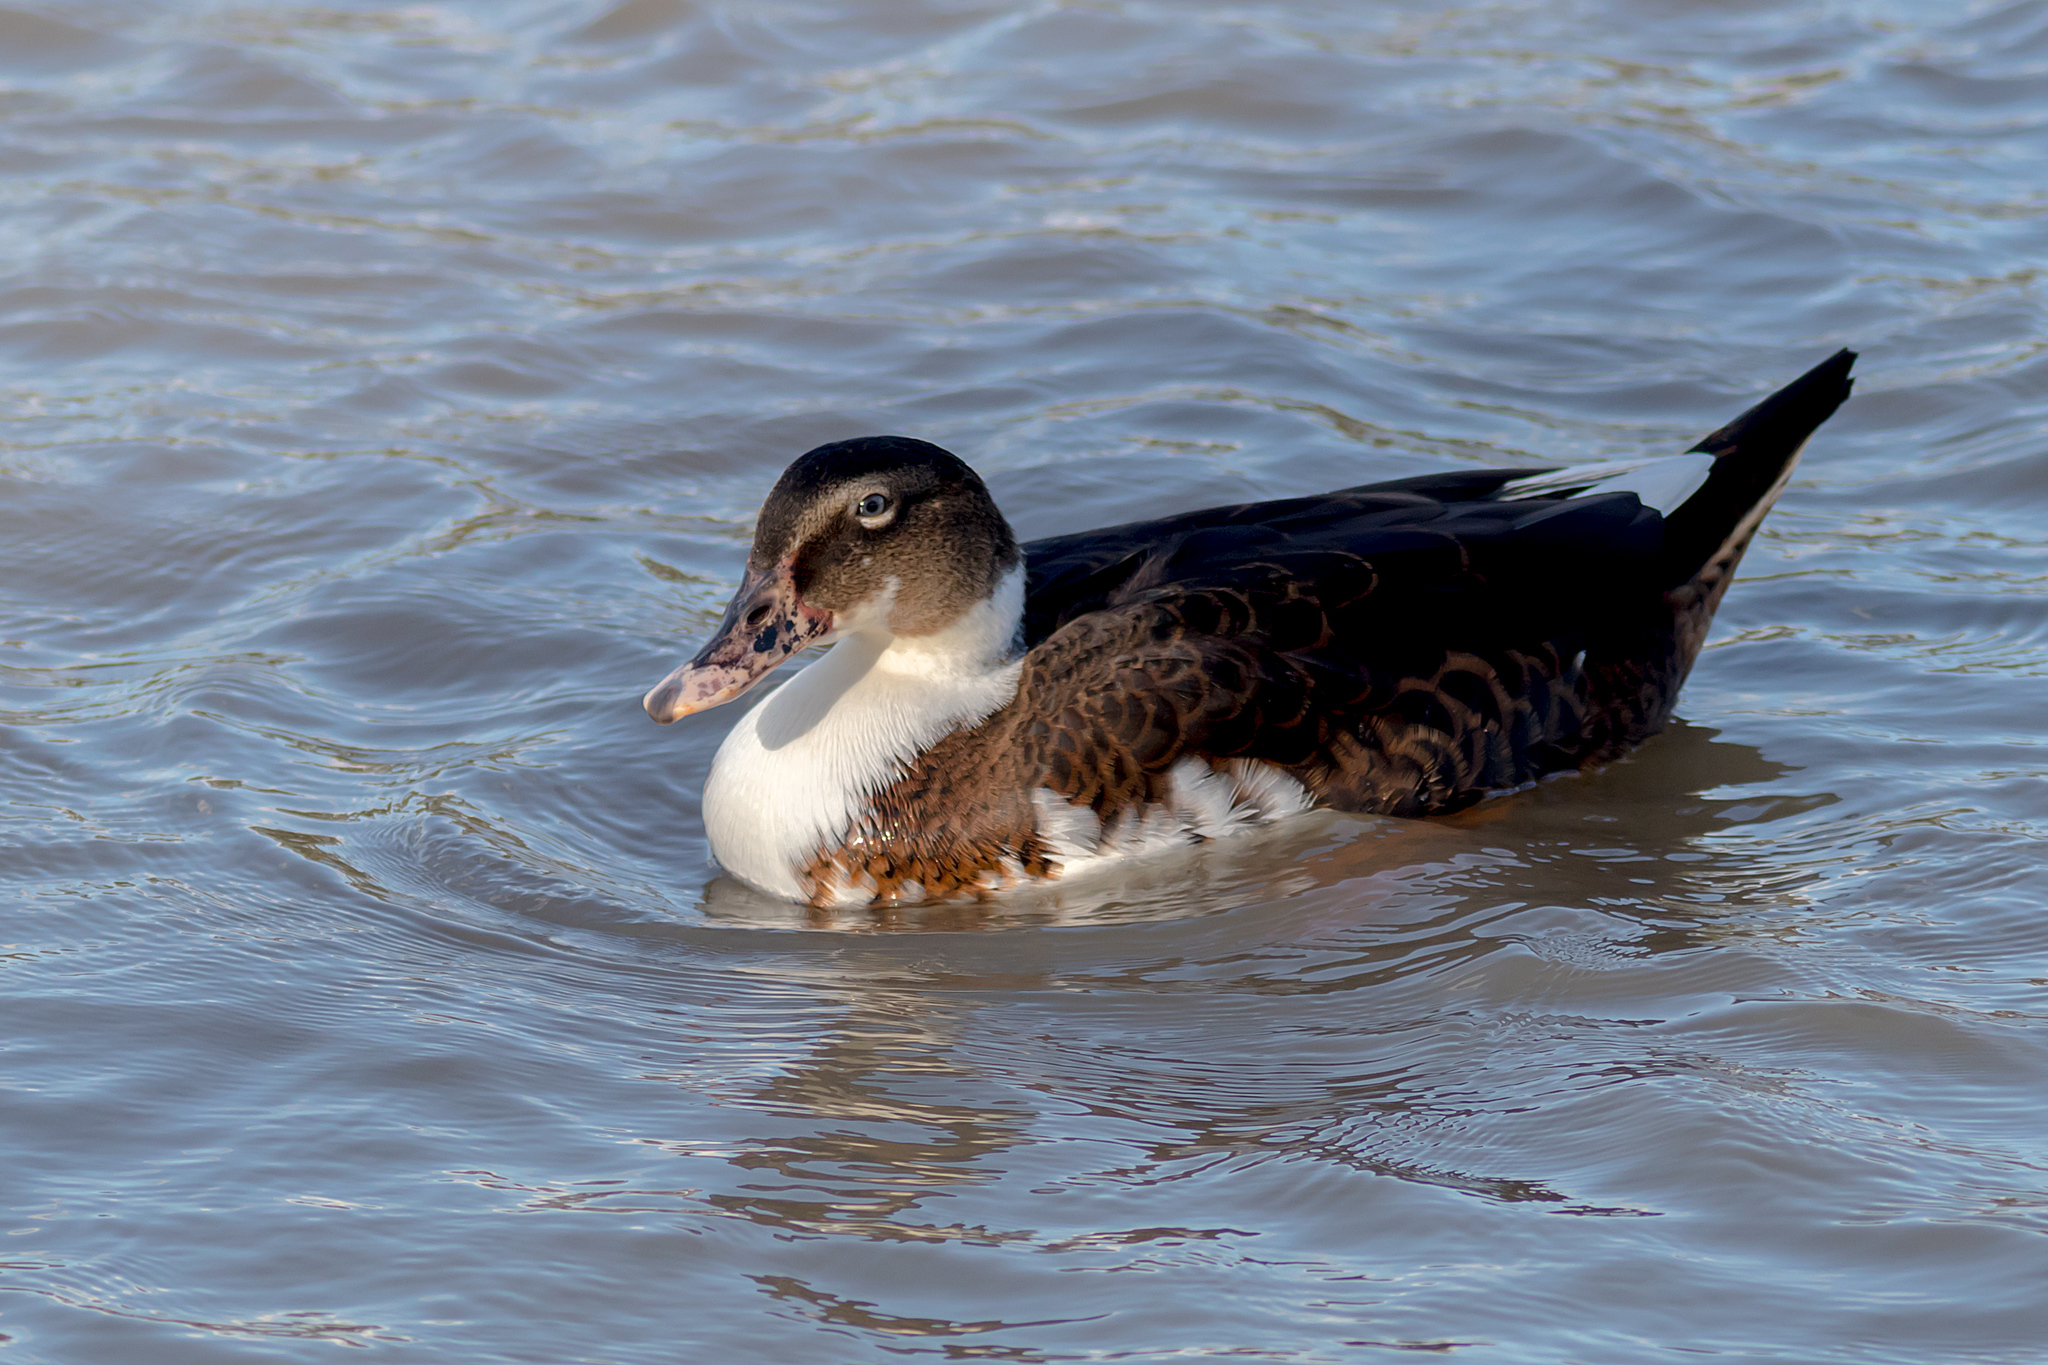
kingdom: Animalia
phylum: Chordata
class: Aves
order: Anseriformes
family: Anatidae
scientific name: Anatidae
